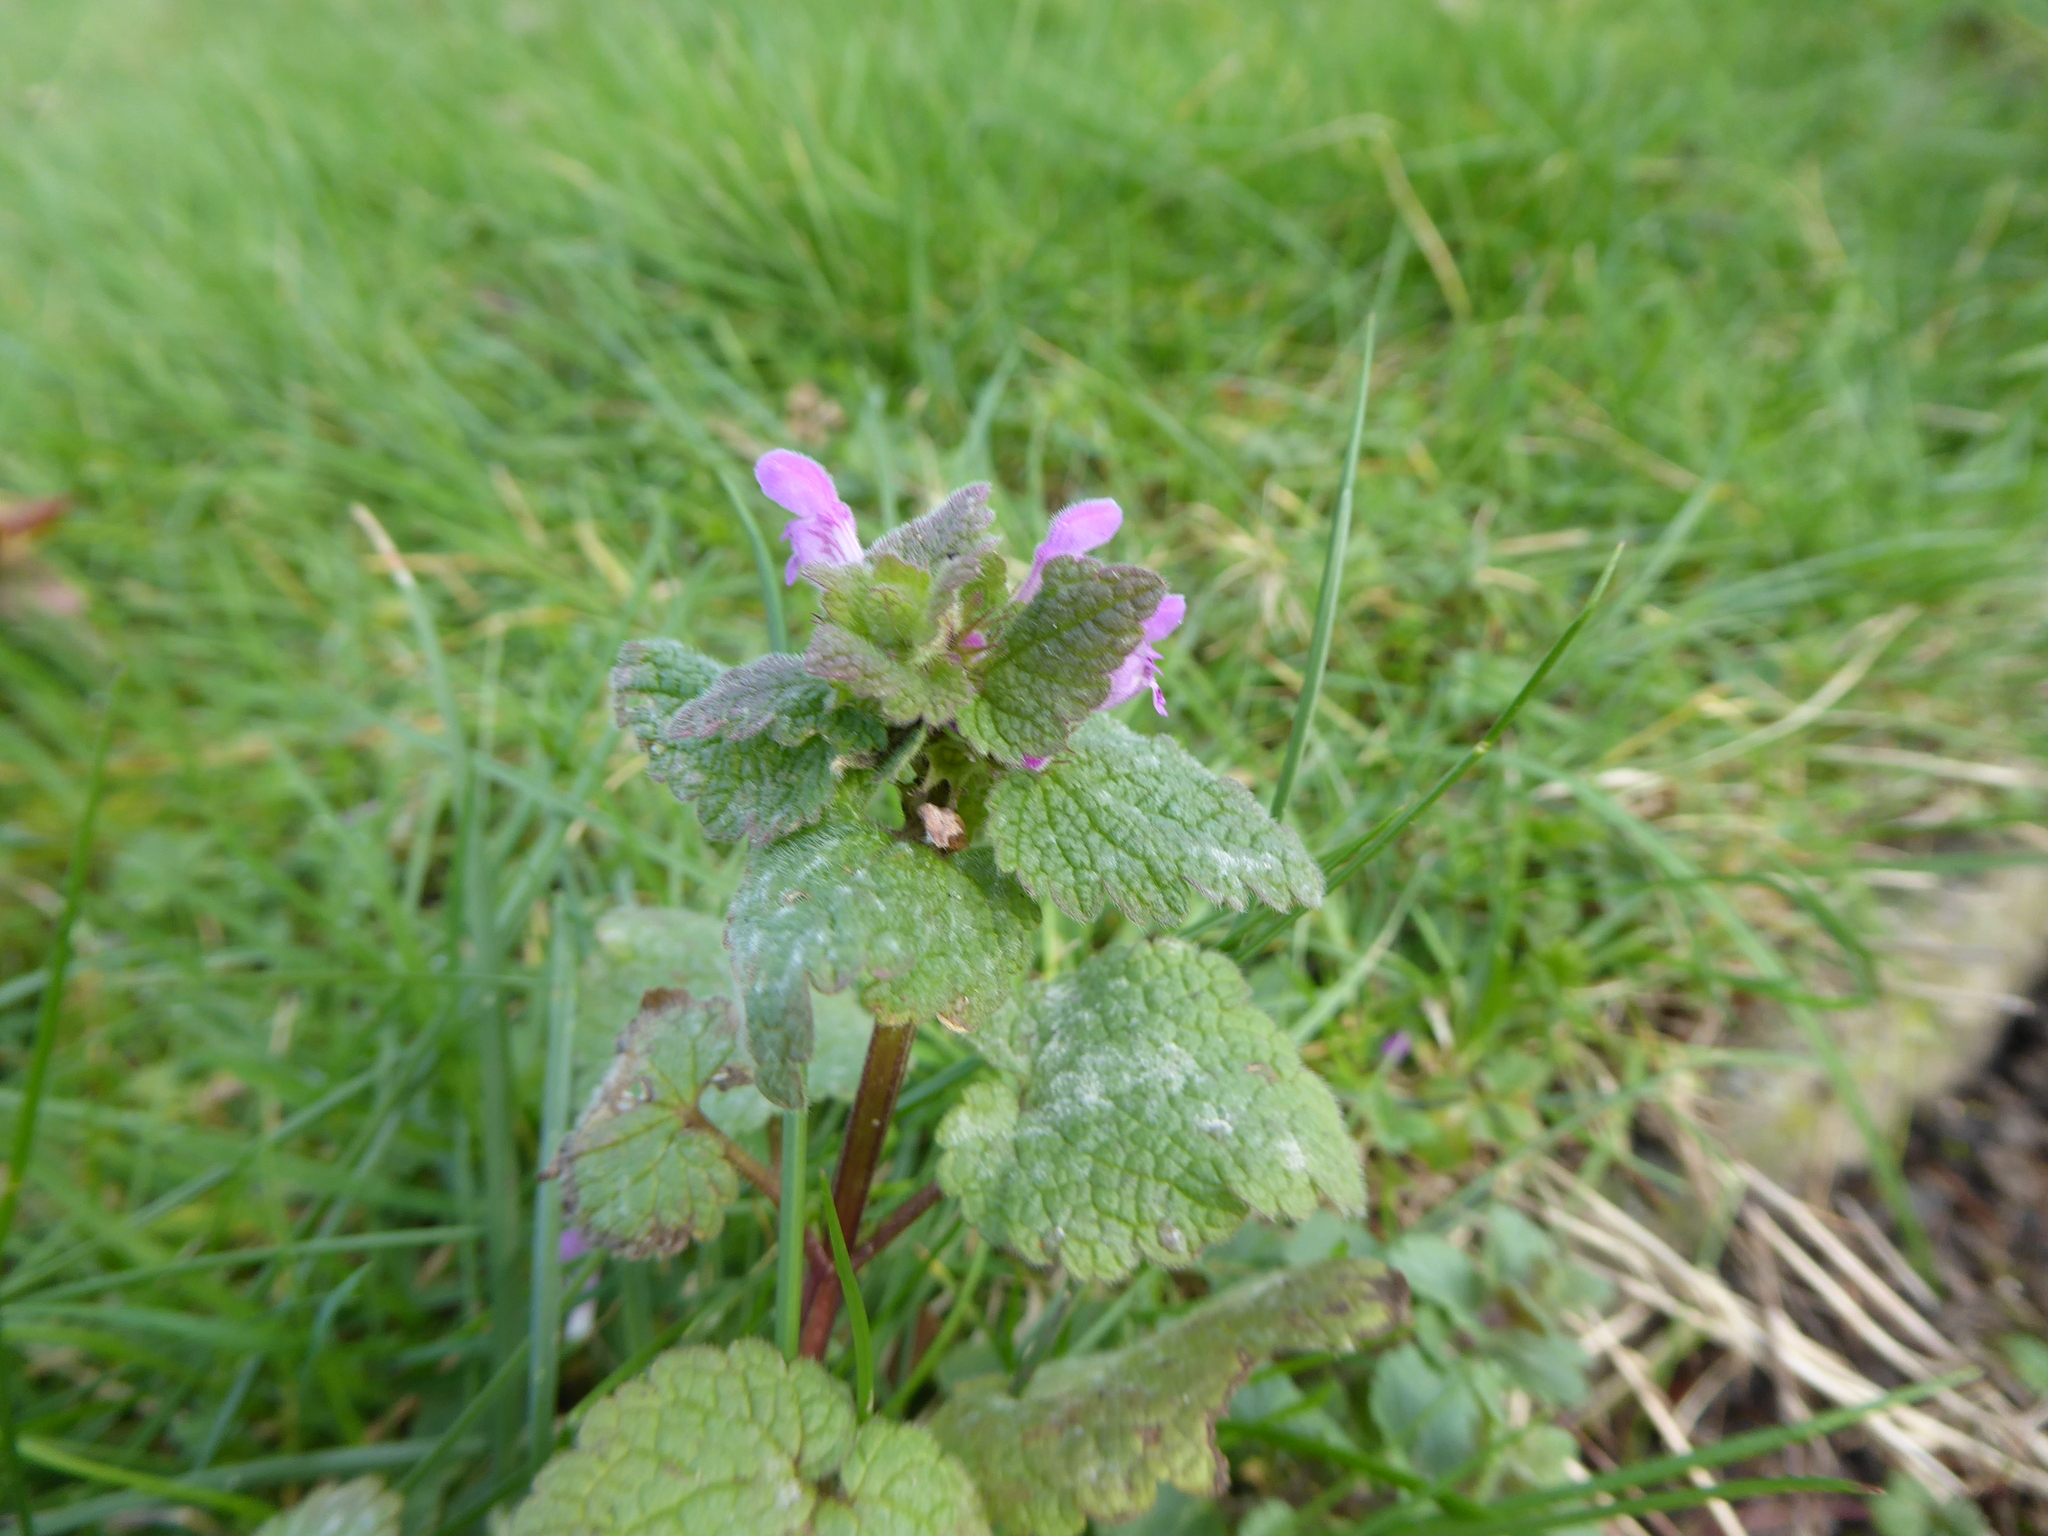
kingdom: Plantae
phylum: Tracheophyta
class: Magnoliopsida
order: Lamiales
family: Lamiaceae
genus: Lamium
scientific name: Lamium purpureum
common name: Red dead-nettle
